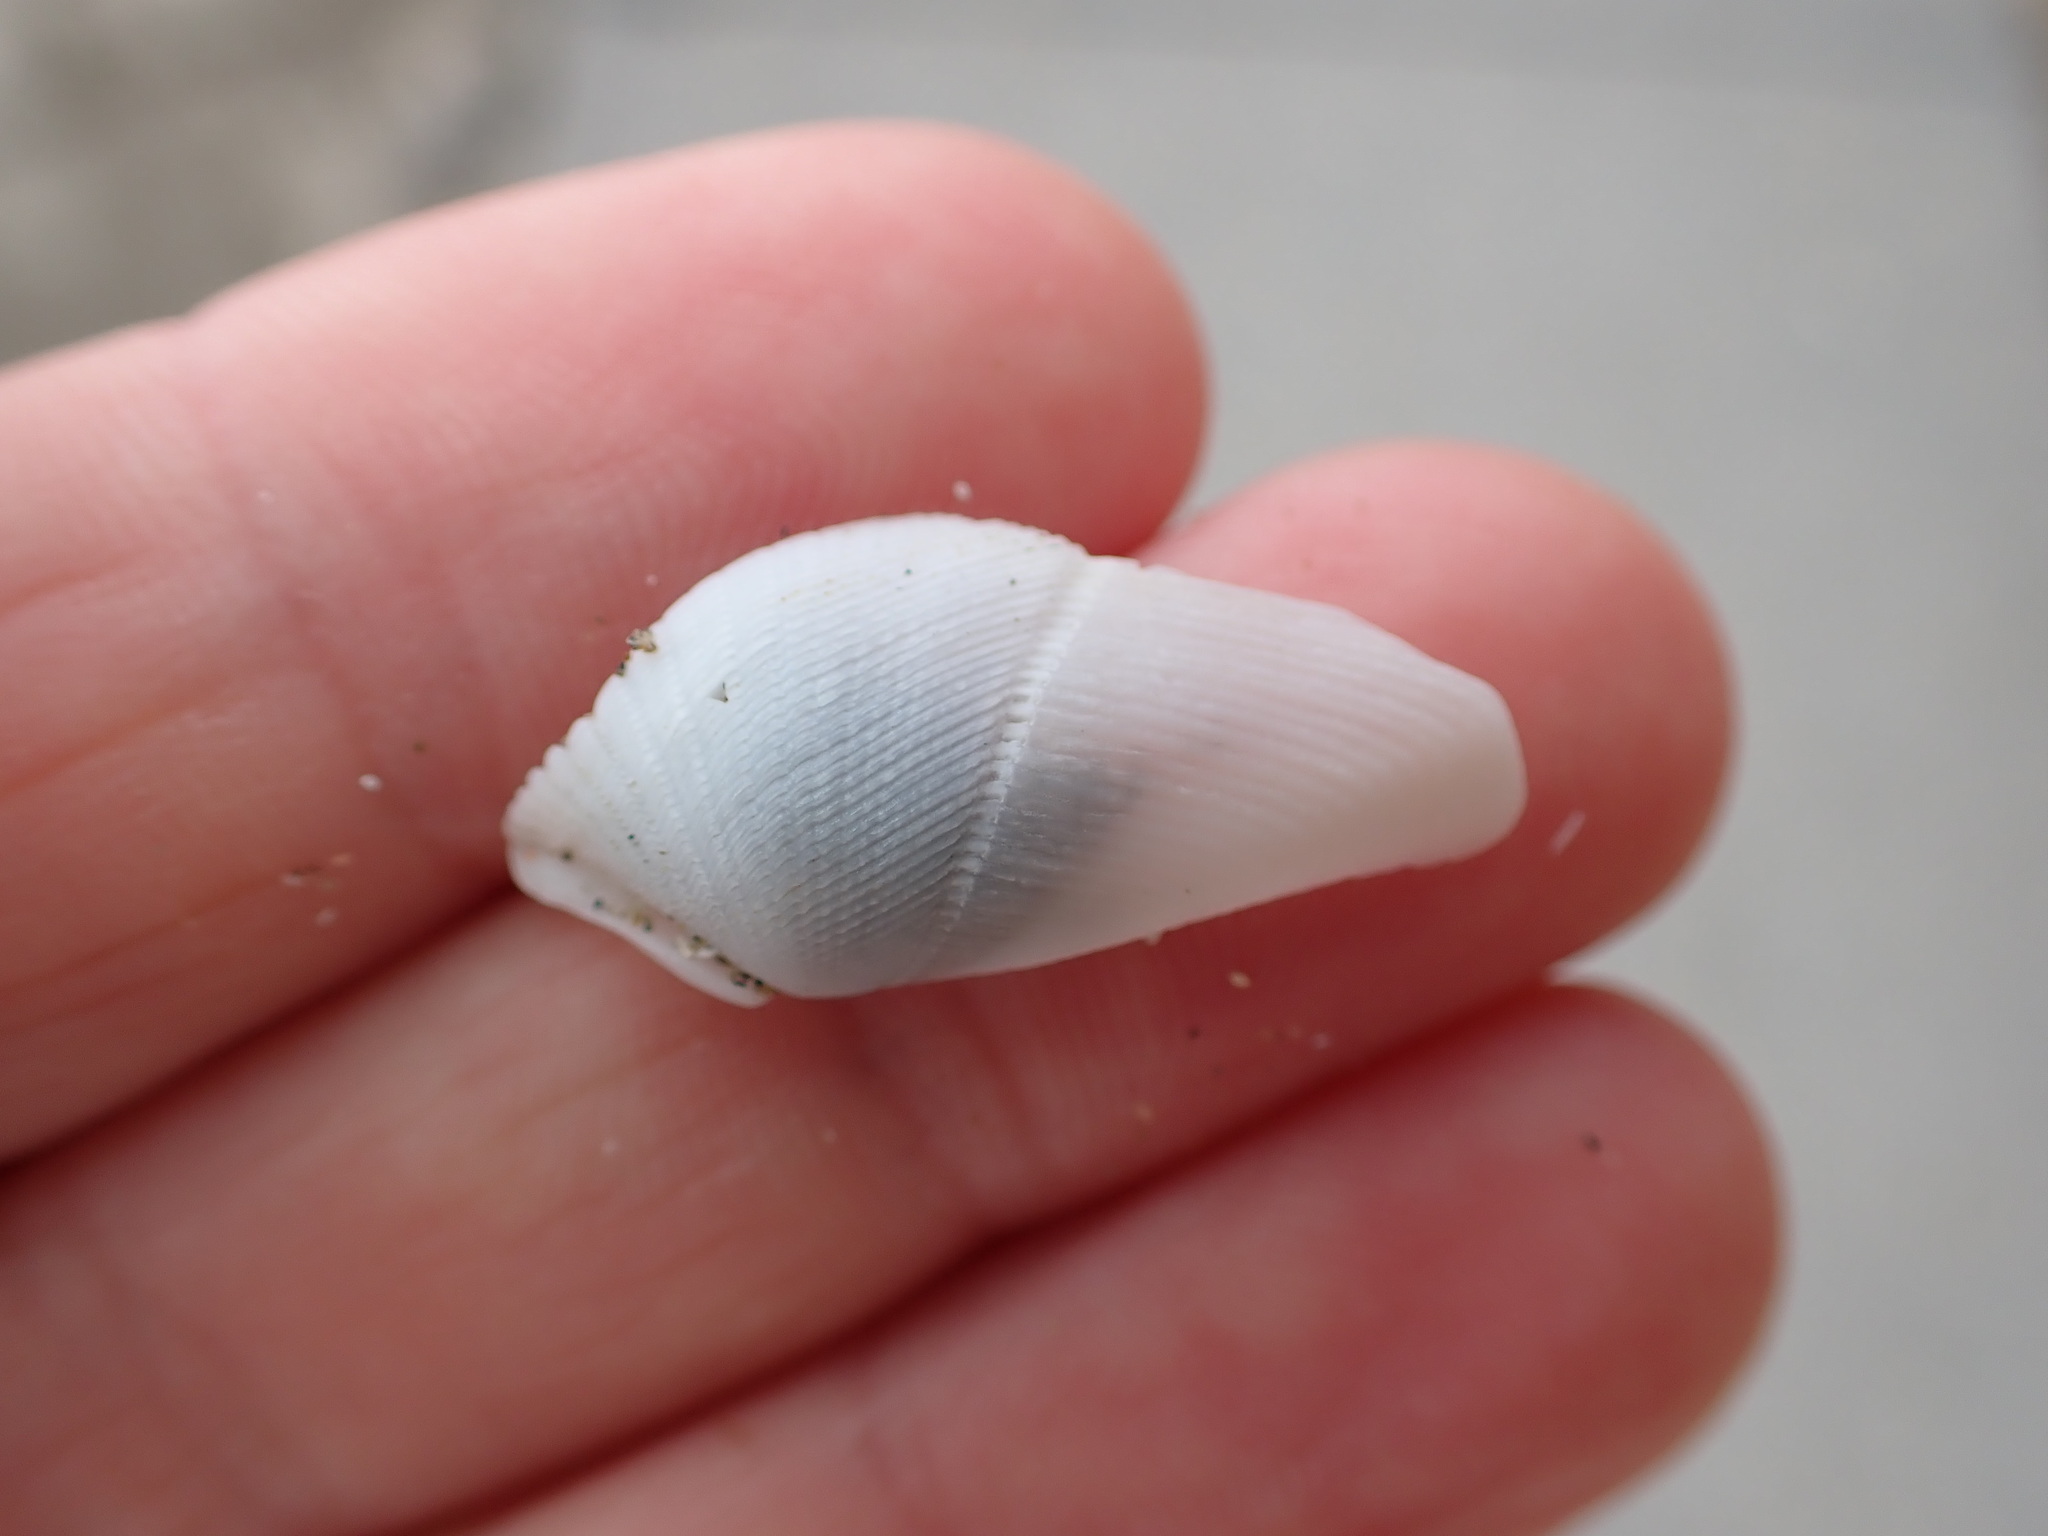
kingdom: Animalia
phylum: Mollusca
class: Bivalvia
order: Myida
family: Pholadidae
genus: Pholadidea
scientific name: Pholadidea suteri
